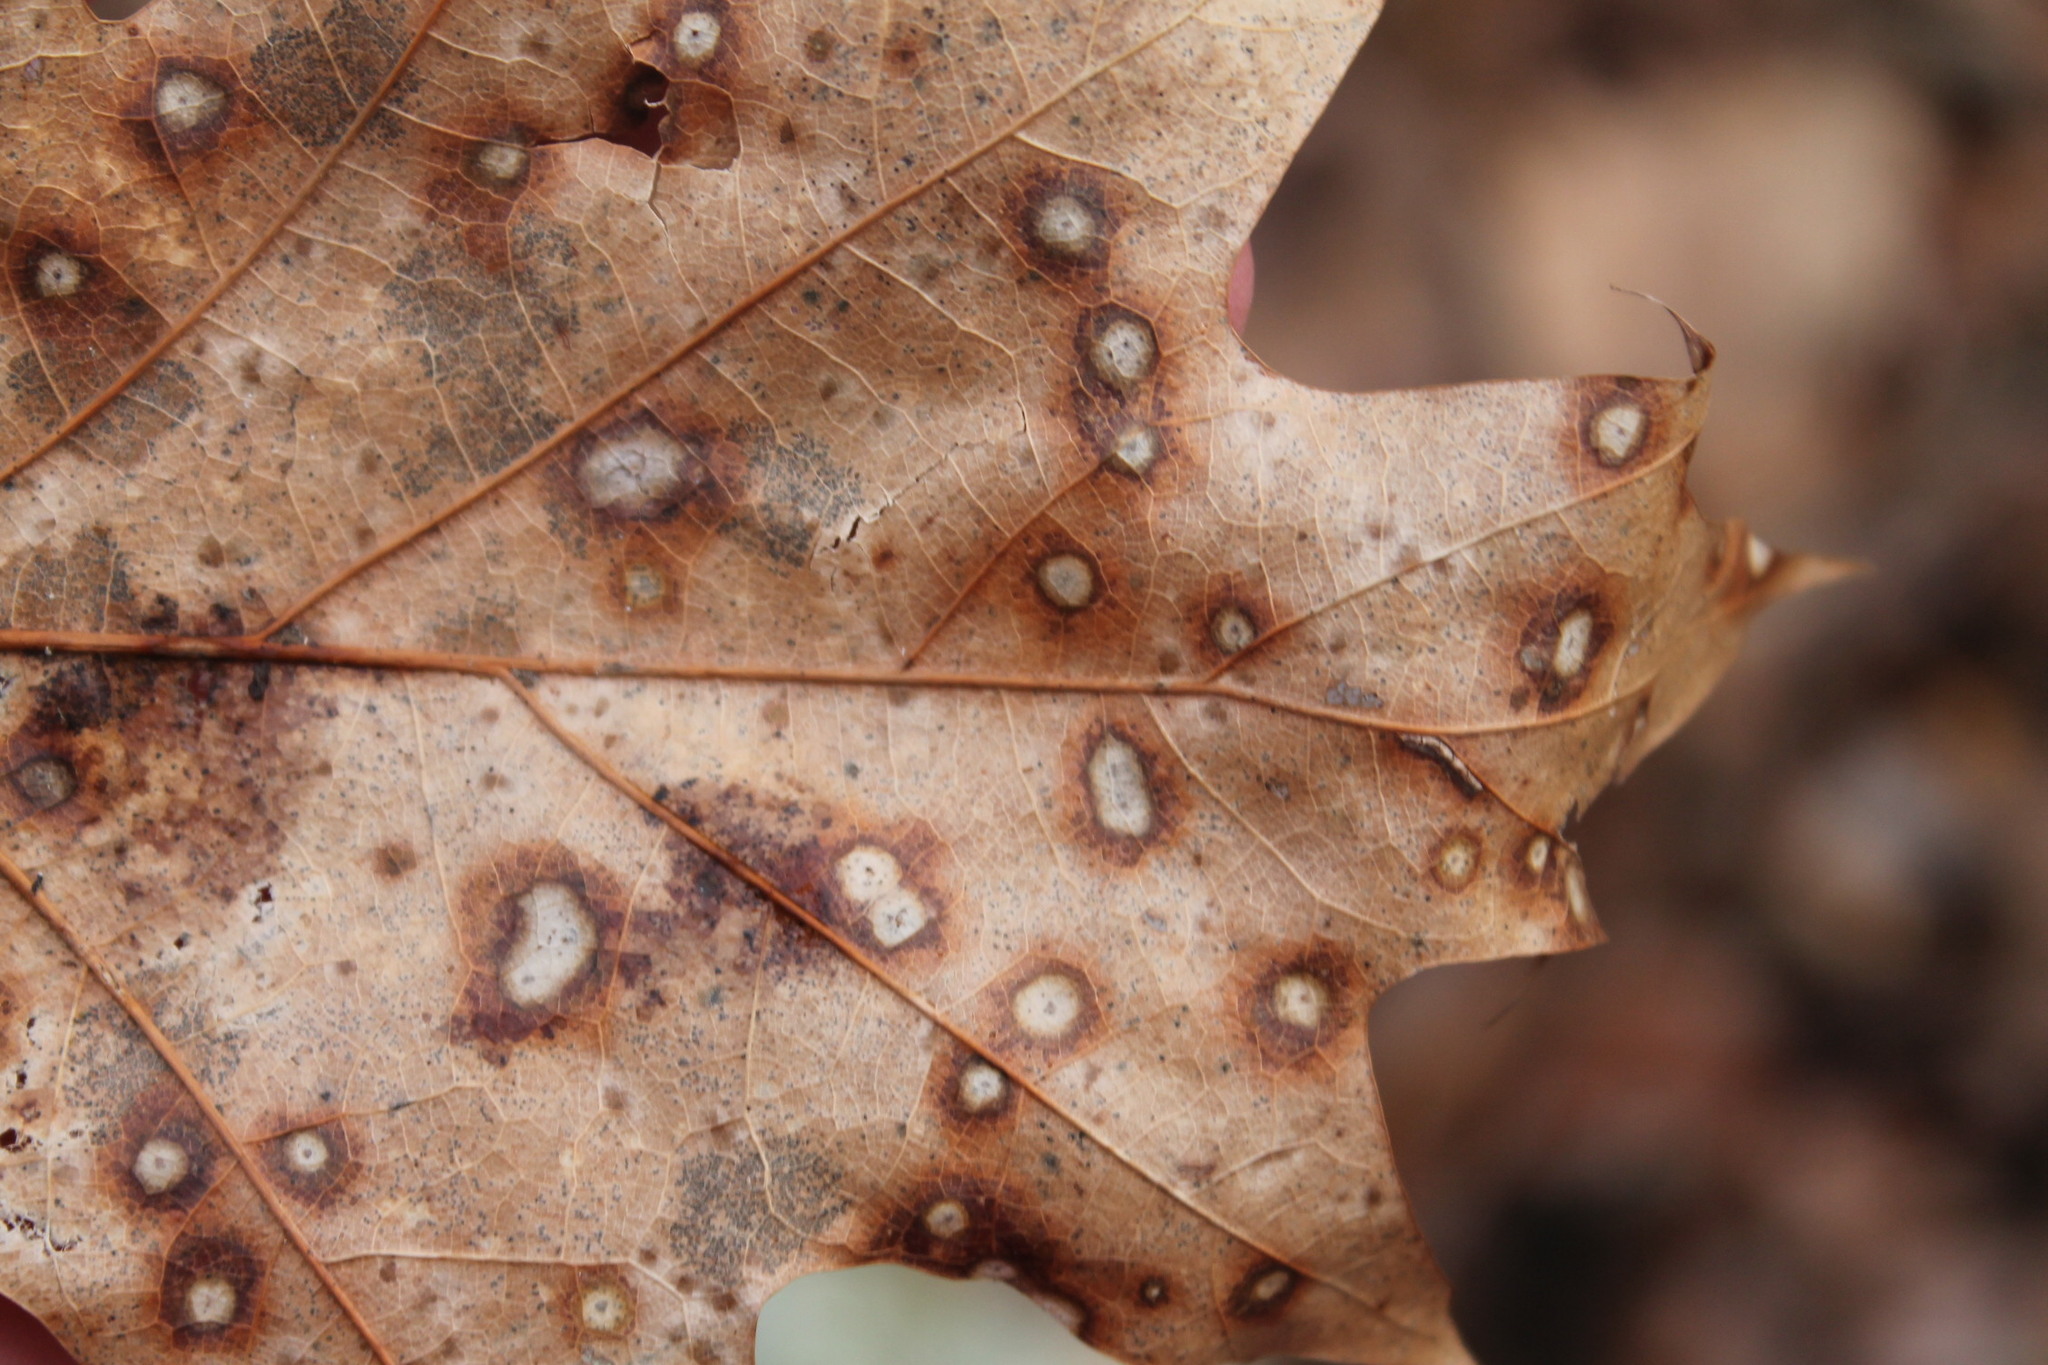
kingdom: Fungi
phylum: Ascomycota
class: Sordariomycetes
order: Diaporthales
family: Melanconidaceae
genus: Dicarpella
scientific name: Dicarpella dryina
